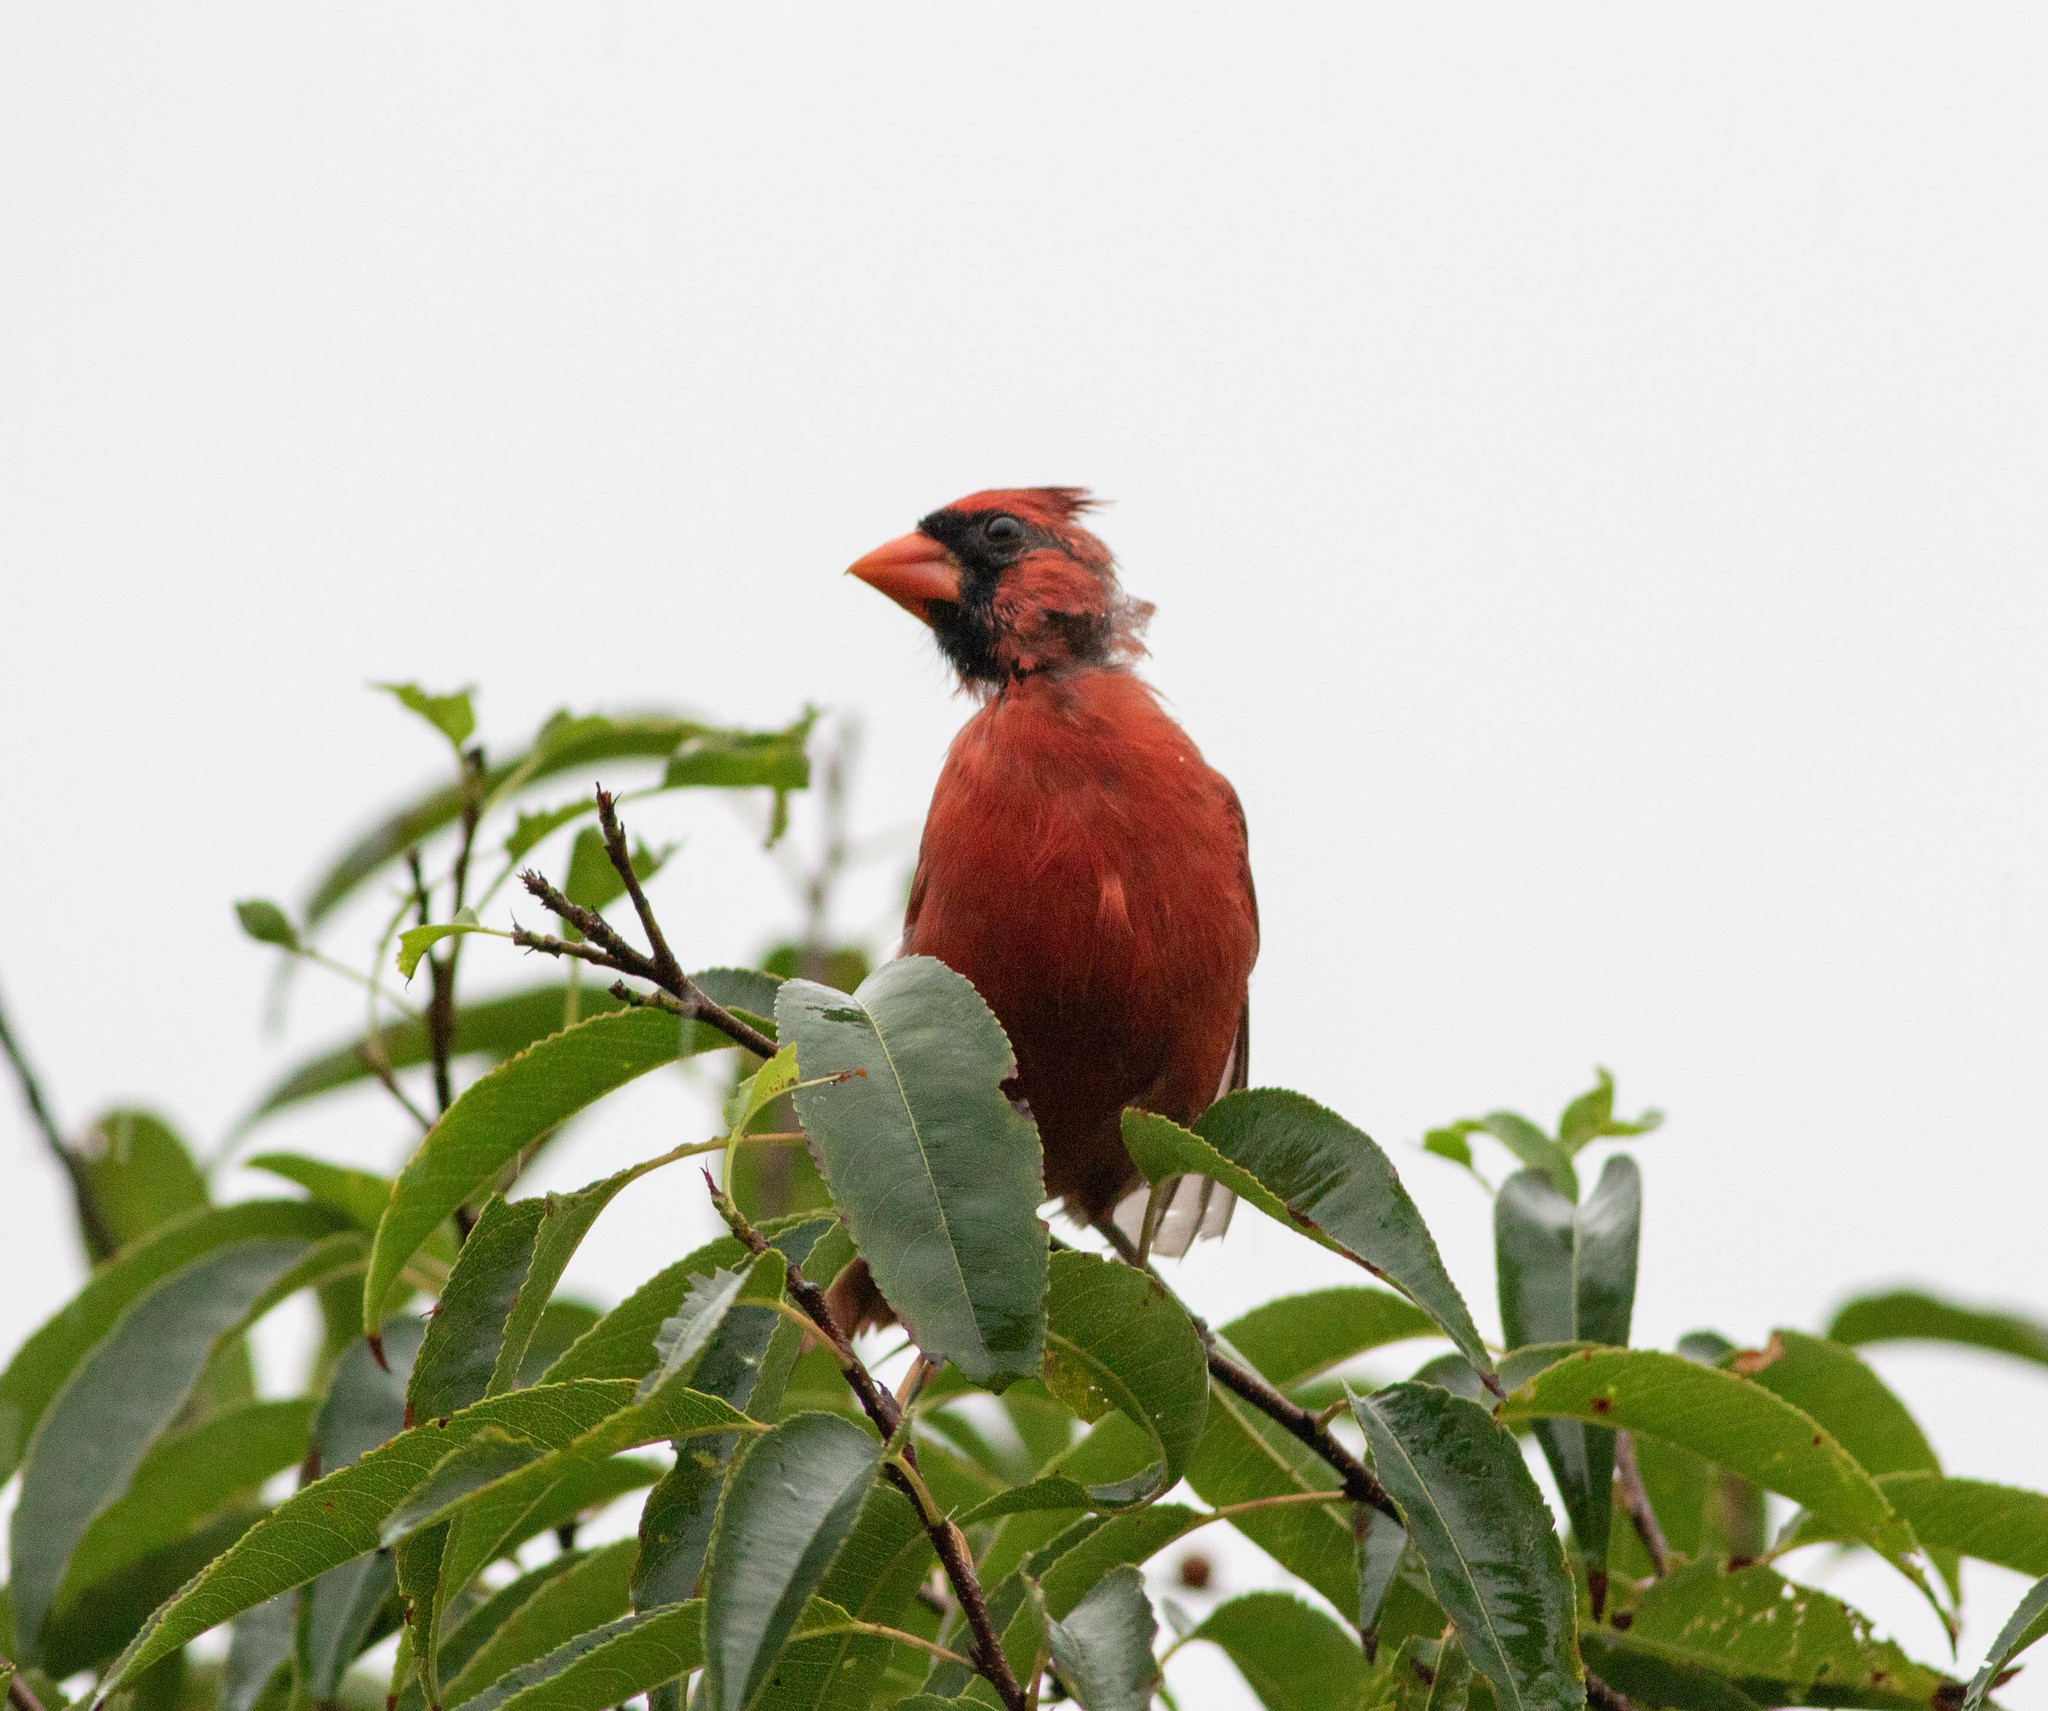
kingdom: Animalia
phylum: Chordata
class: Aves
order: Passeriformes
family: Cardinalidae
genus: Cardinalis
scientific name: Cardinalis cardinalis
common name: Northern cardinal
